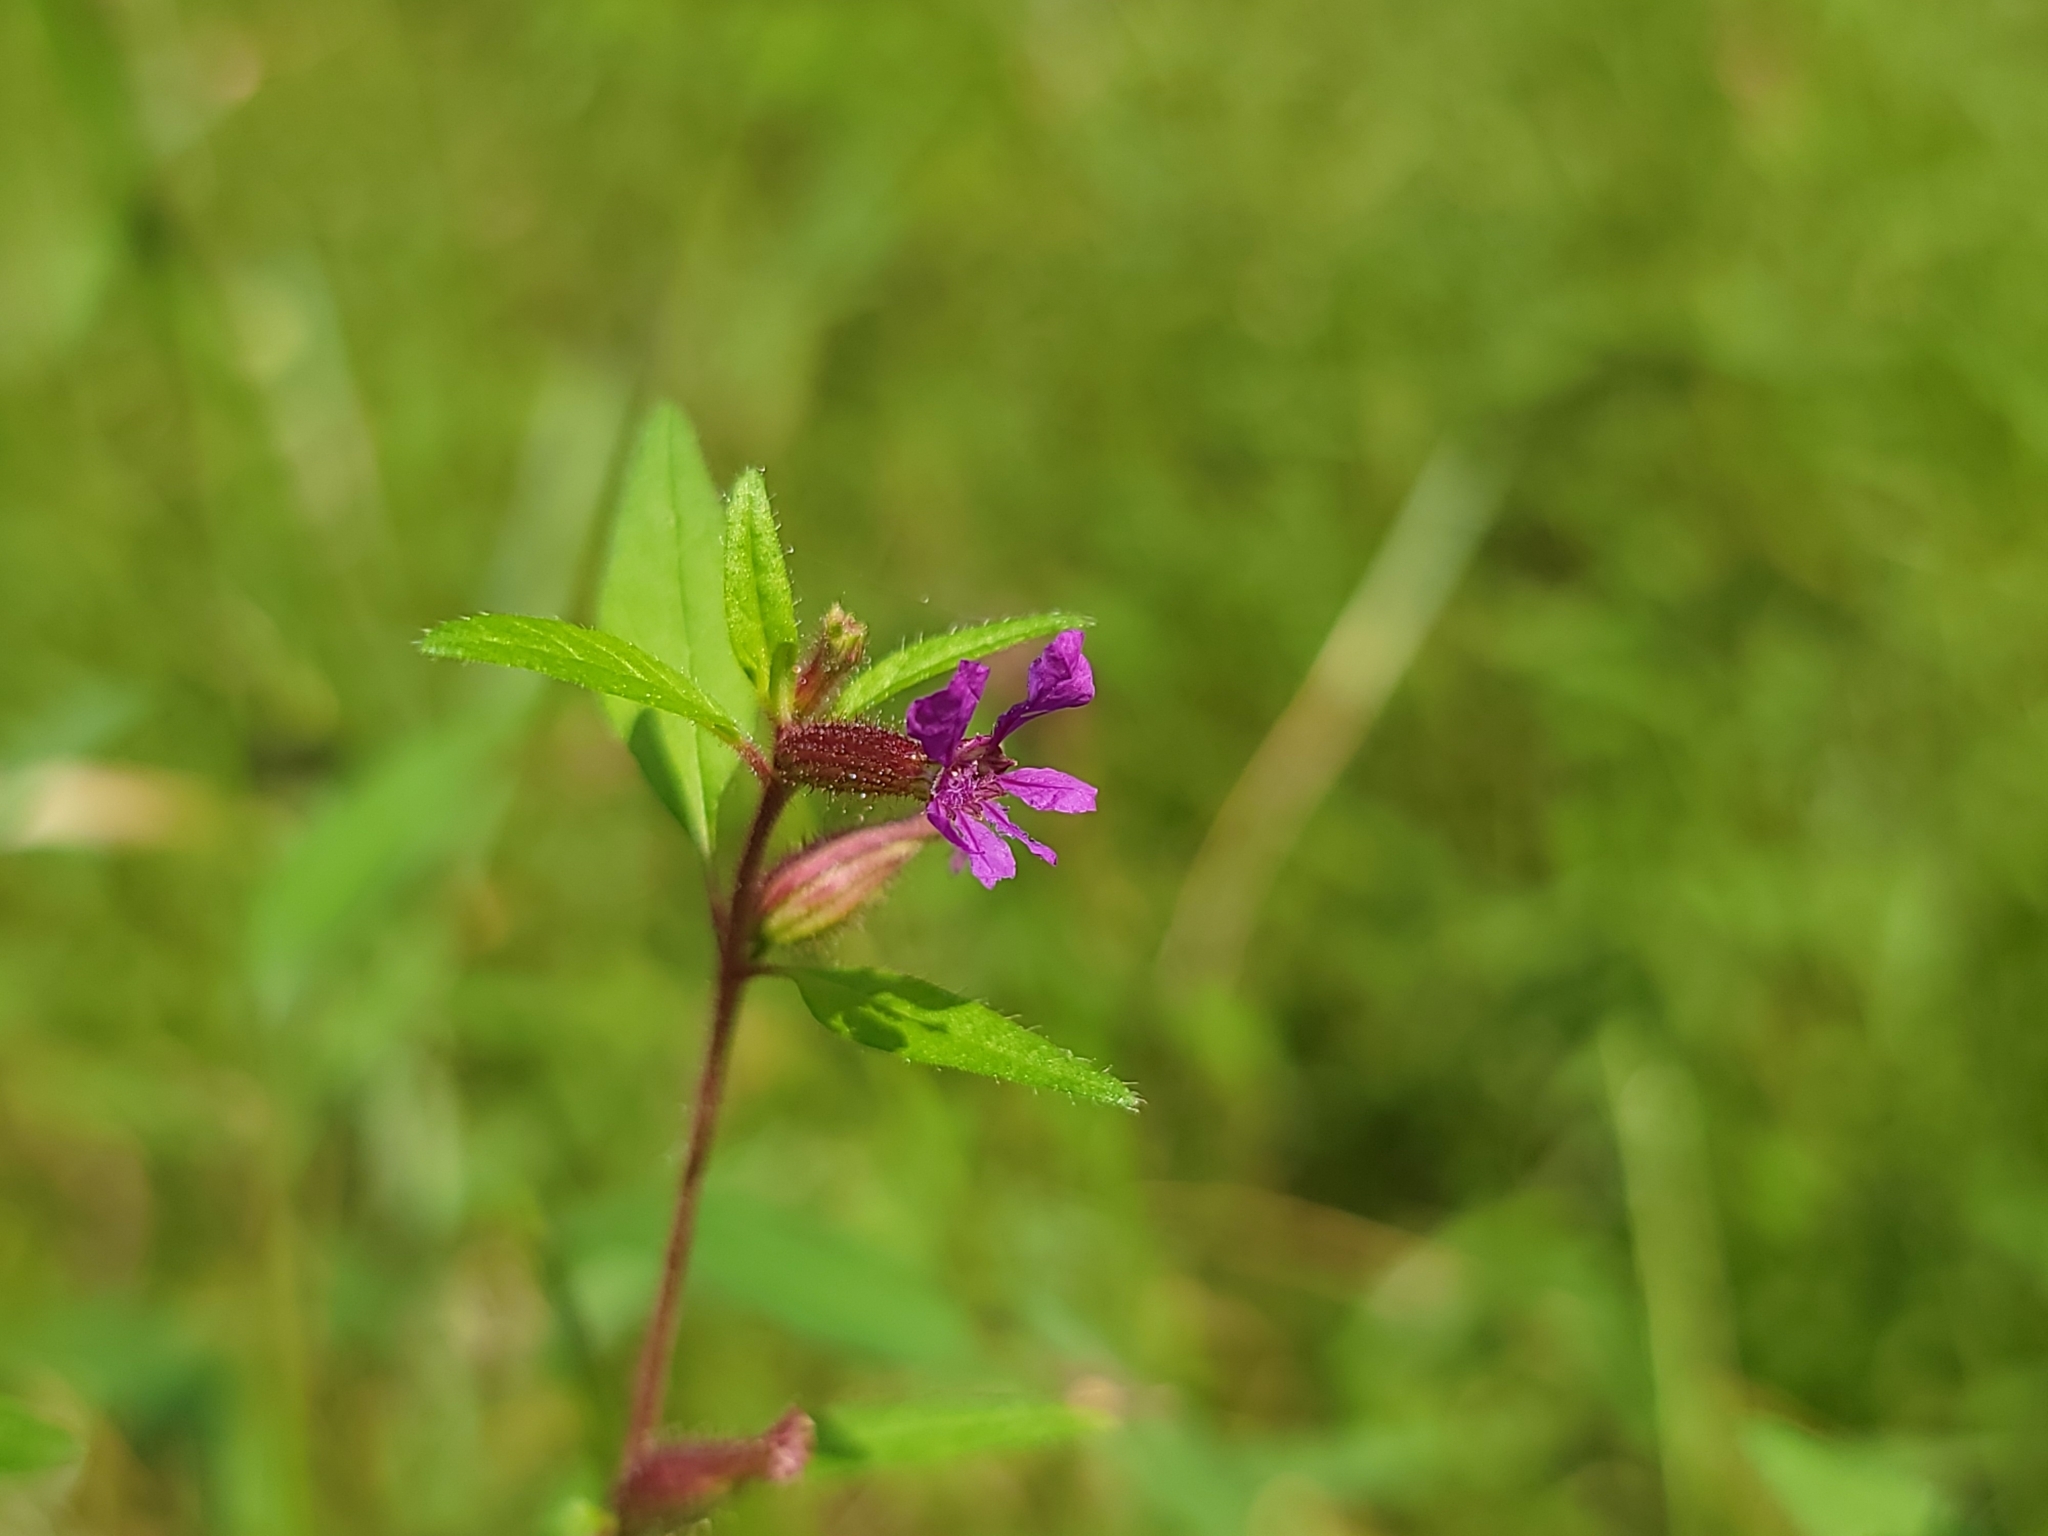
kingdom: Plantae
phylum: Tracheophyta
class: Magnoliopsida
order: Myrtales
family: Lythraceae
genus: Cuphea
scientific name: Cuphea viscosissima
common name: Clammy cuphea
